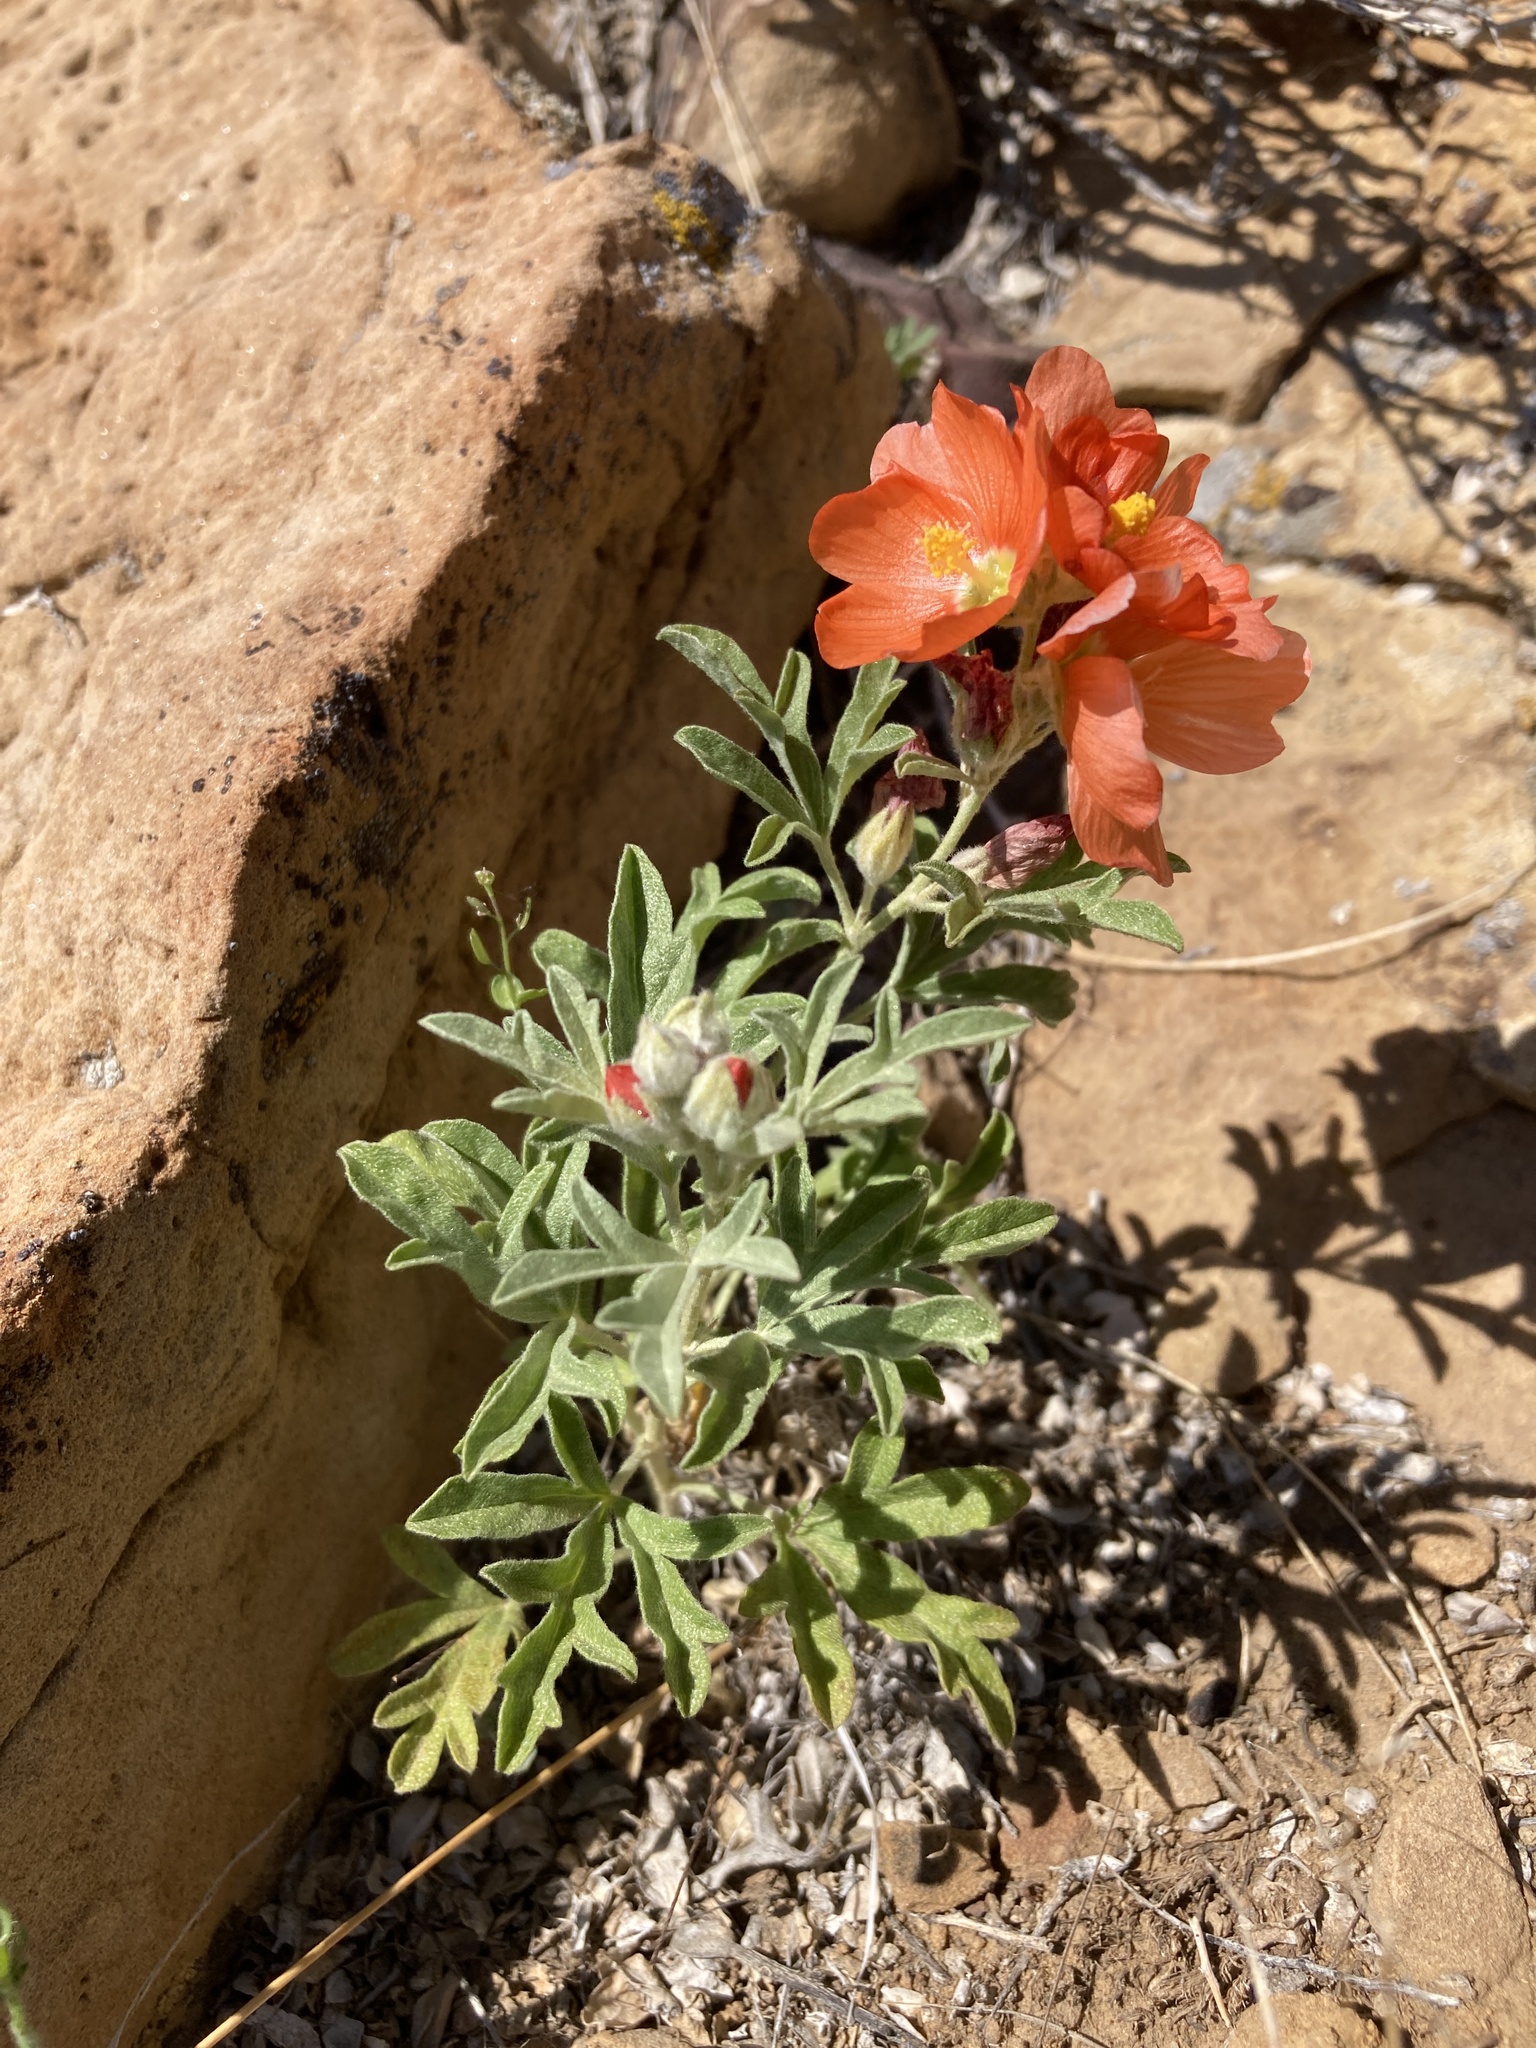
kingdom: Plantae
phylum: Tracheophyta
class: Magnoliopsida
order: Malvales
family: Malvaceae
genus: Sphaeralcea
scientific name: Sphaeralcea coccinea
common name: Moss-rose
